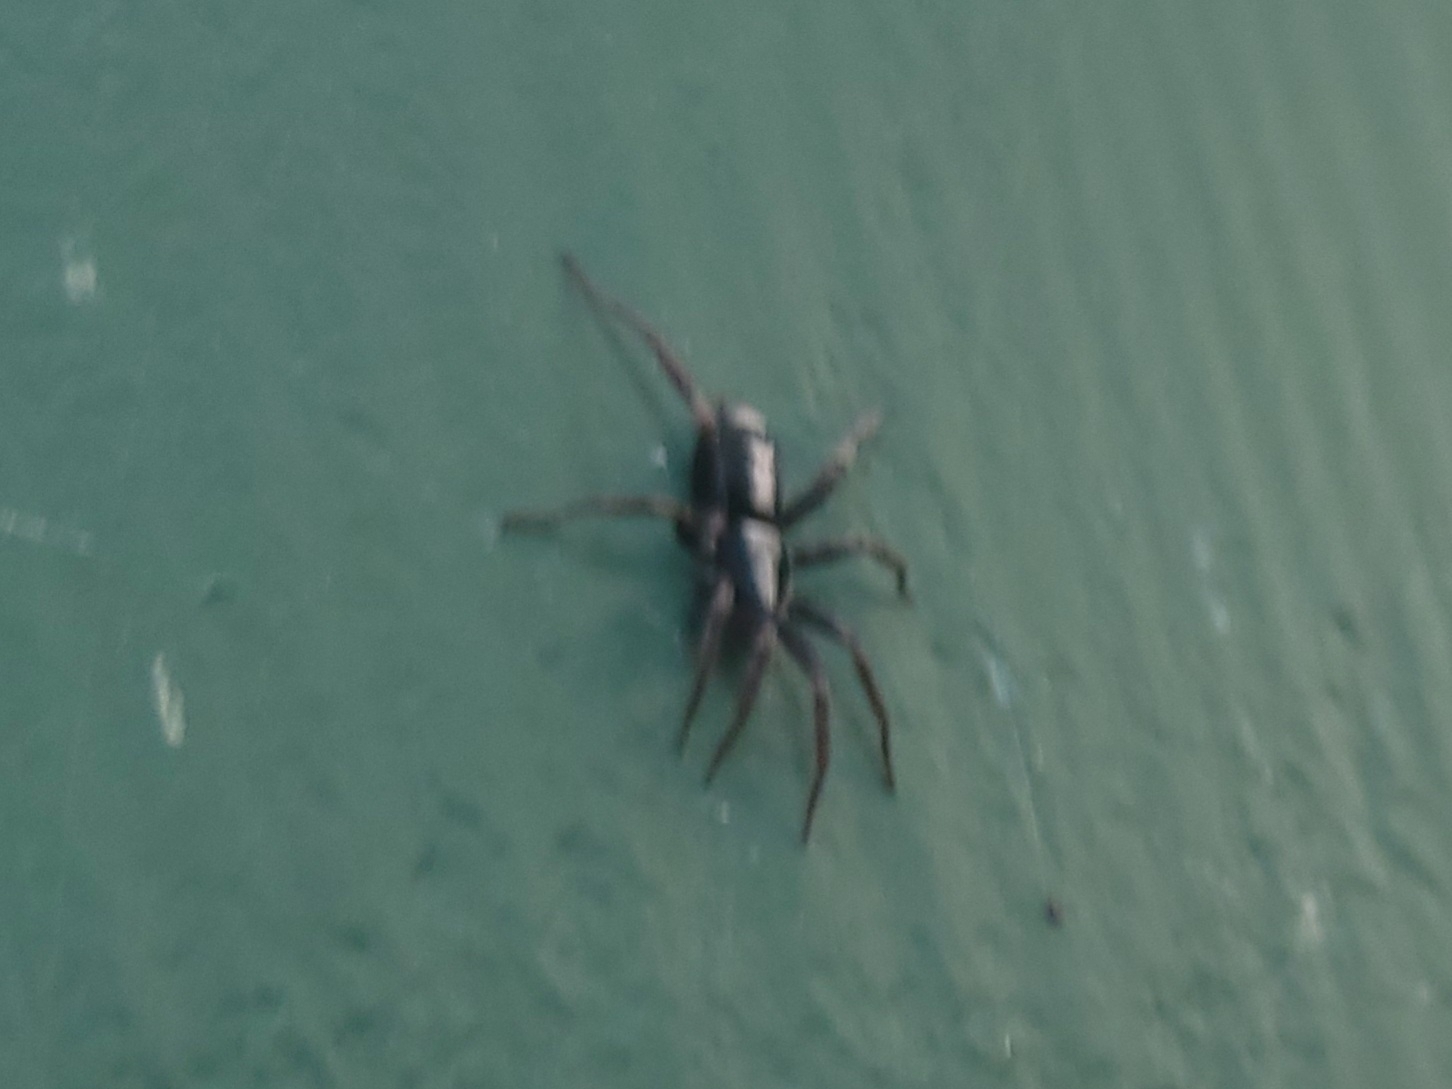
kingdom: Animalia
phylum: Arthropoda
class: Arachnida
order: Araneae
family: Gnaphosidae
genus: Herpyllus
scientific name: Herpyllus ecclesiasticus
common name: Eastern parson spider
